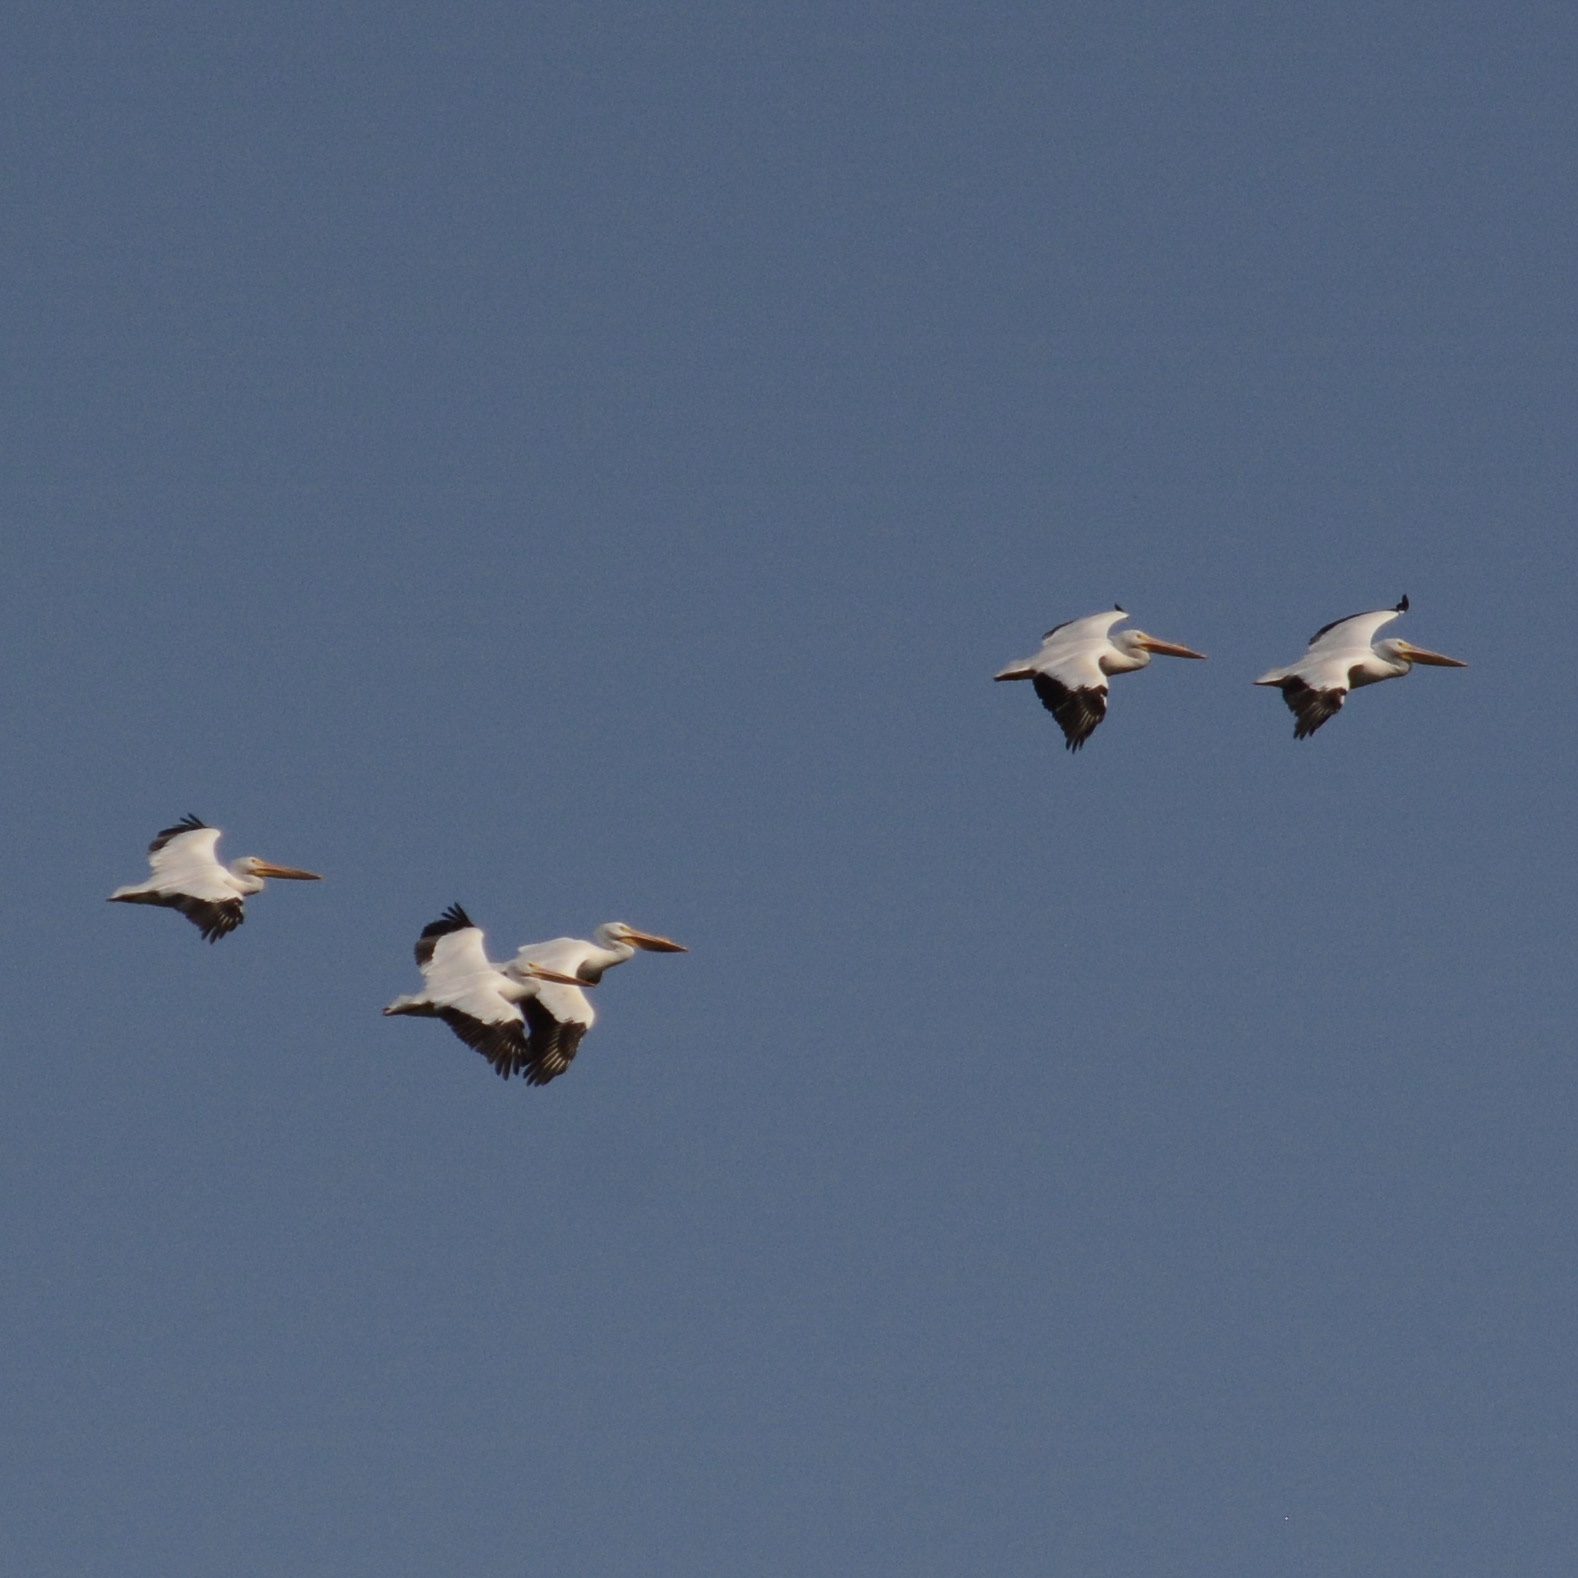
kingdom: Animalia
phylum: Chordata
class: Aves
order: Pelecaniformes
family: Pelecanidae
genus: Pelecanus
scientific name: Pelecanus erythrorhynchos
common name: American white pelican
